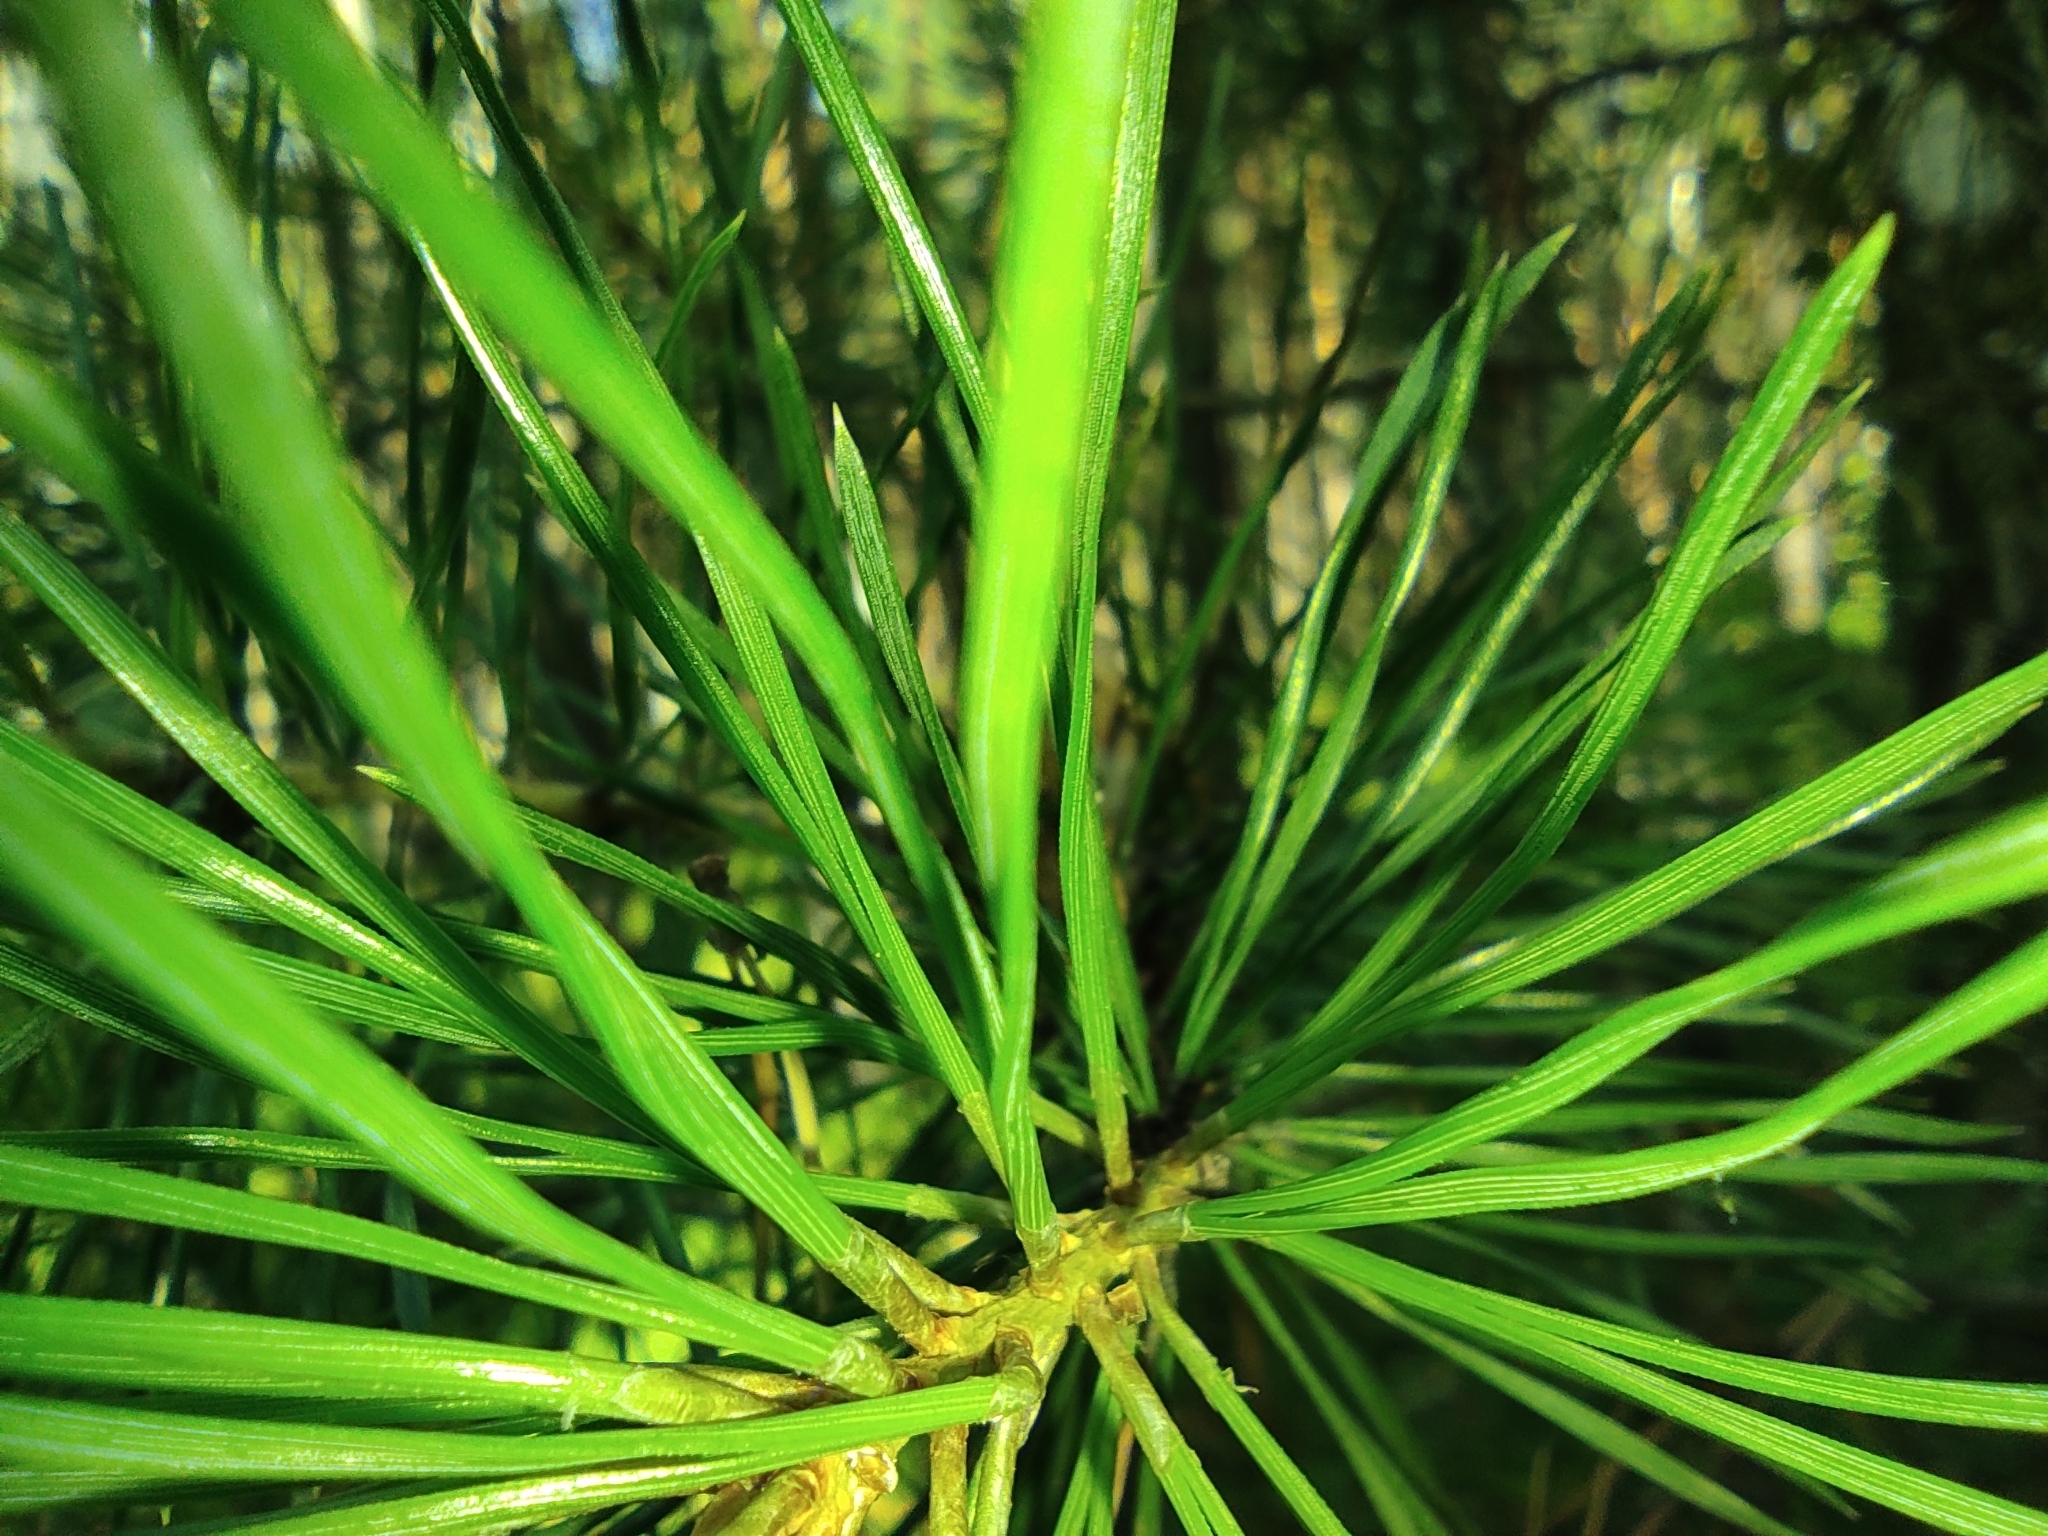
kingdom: Plantae
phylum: Tracheophyta
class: Pinopsida
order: Pinales
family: Pinaceae
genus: Pinus
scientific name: Pinus sylvestris
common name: Scots pine
